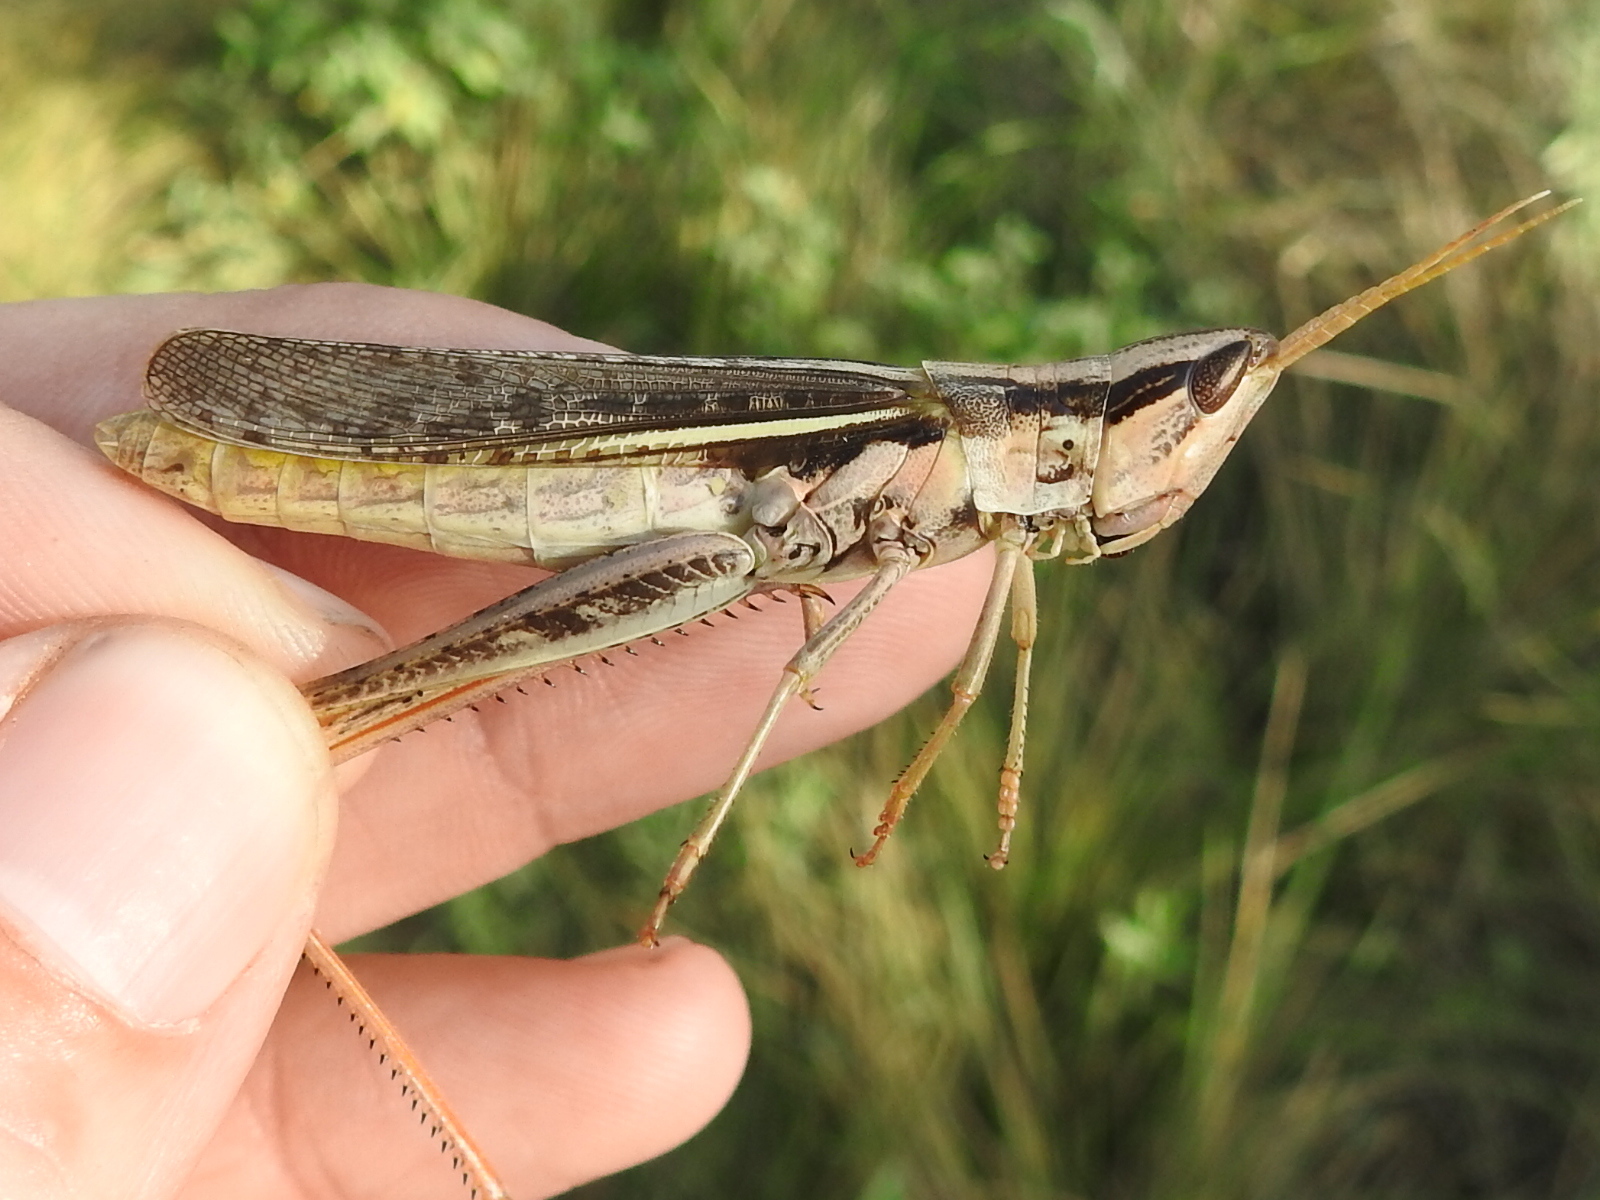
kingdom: Animalia
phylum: Arthropoda
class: Insecta
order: Orthoptera
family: Acrididae
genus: Mermiria
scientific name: Mermiria bivittata
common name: Two-striped mermiria grasshopper
